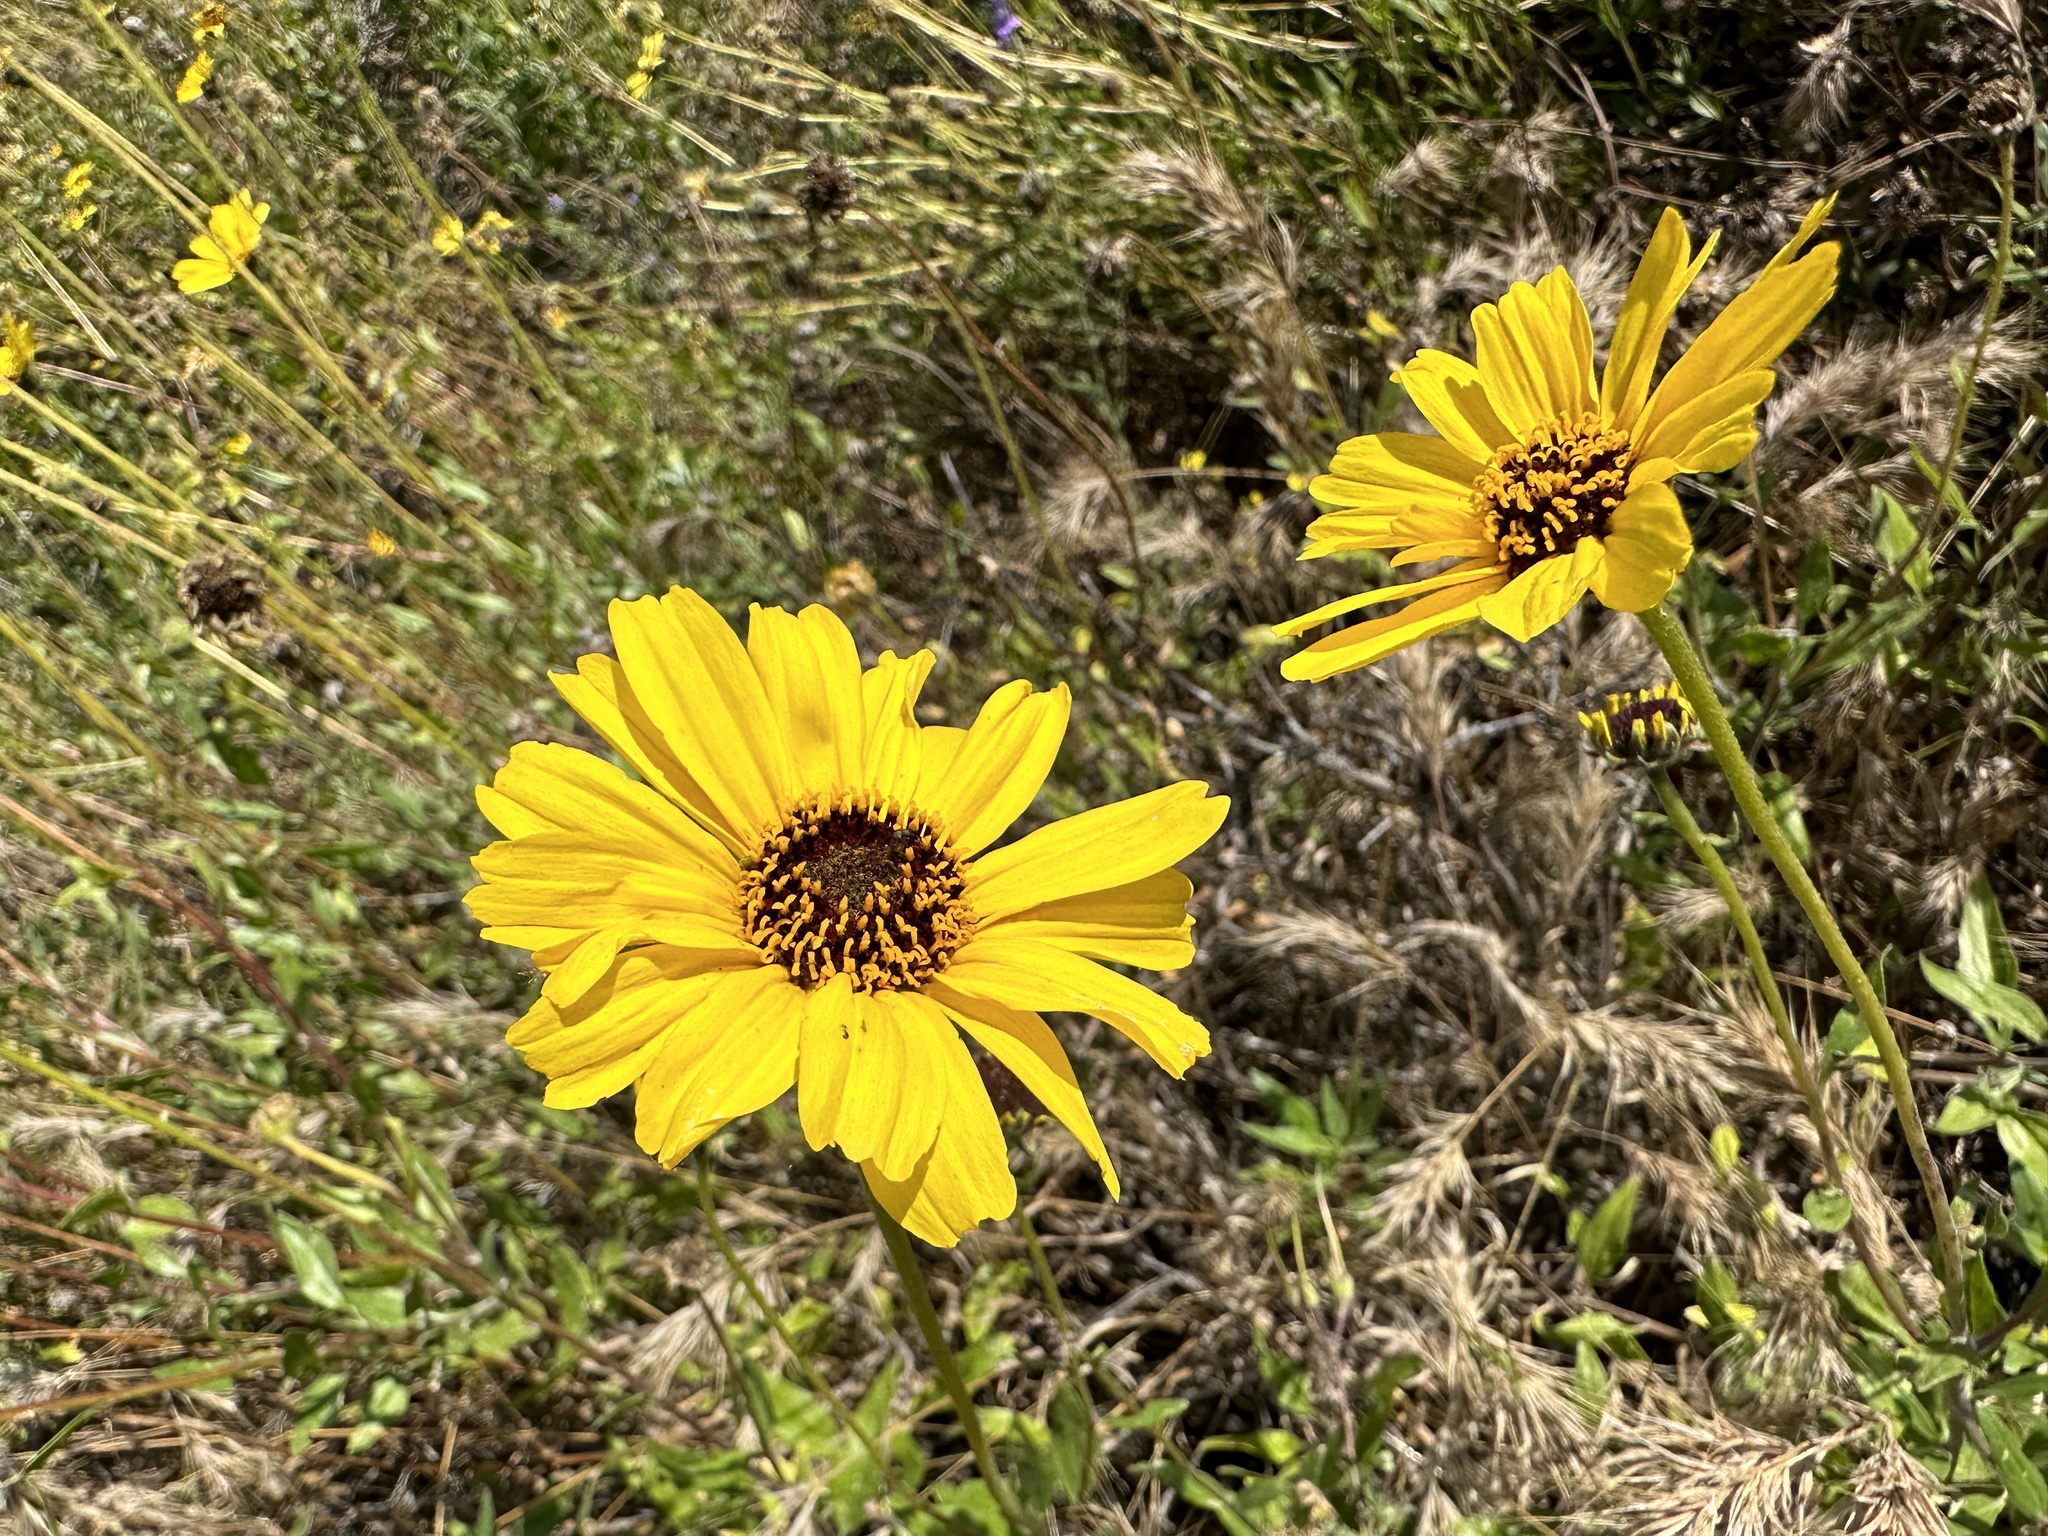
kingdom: Plantae
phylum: Tracheophyta
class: Magnoliopsida
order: Asterales
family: Asteraceae
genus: Encelia
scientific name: Encelia californica
